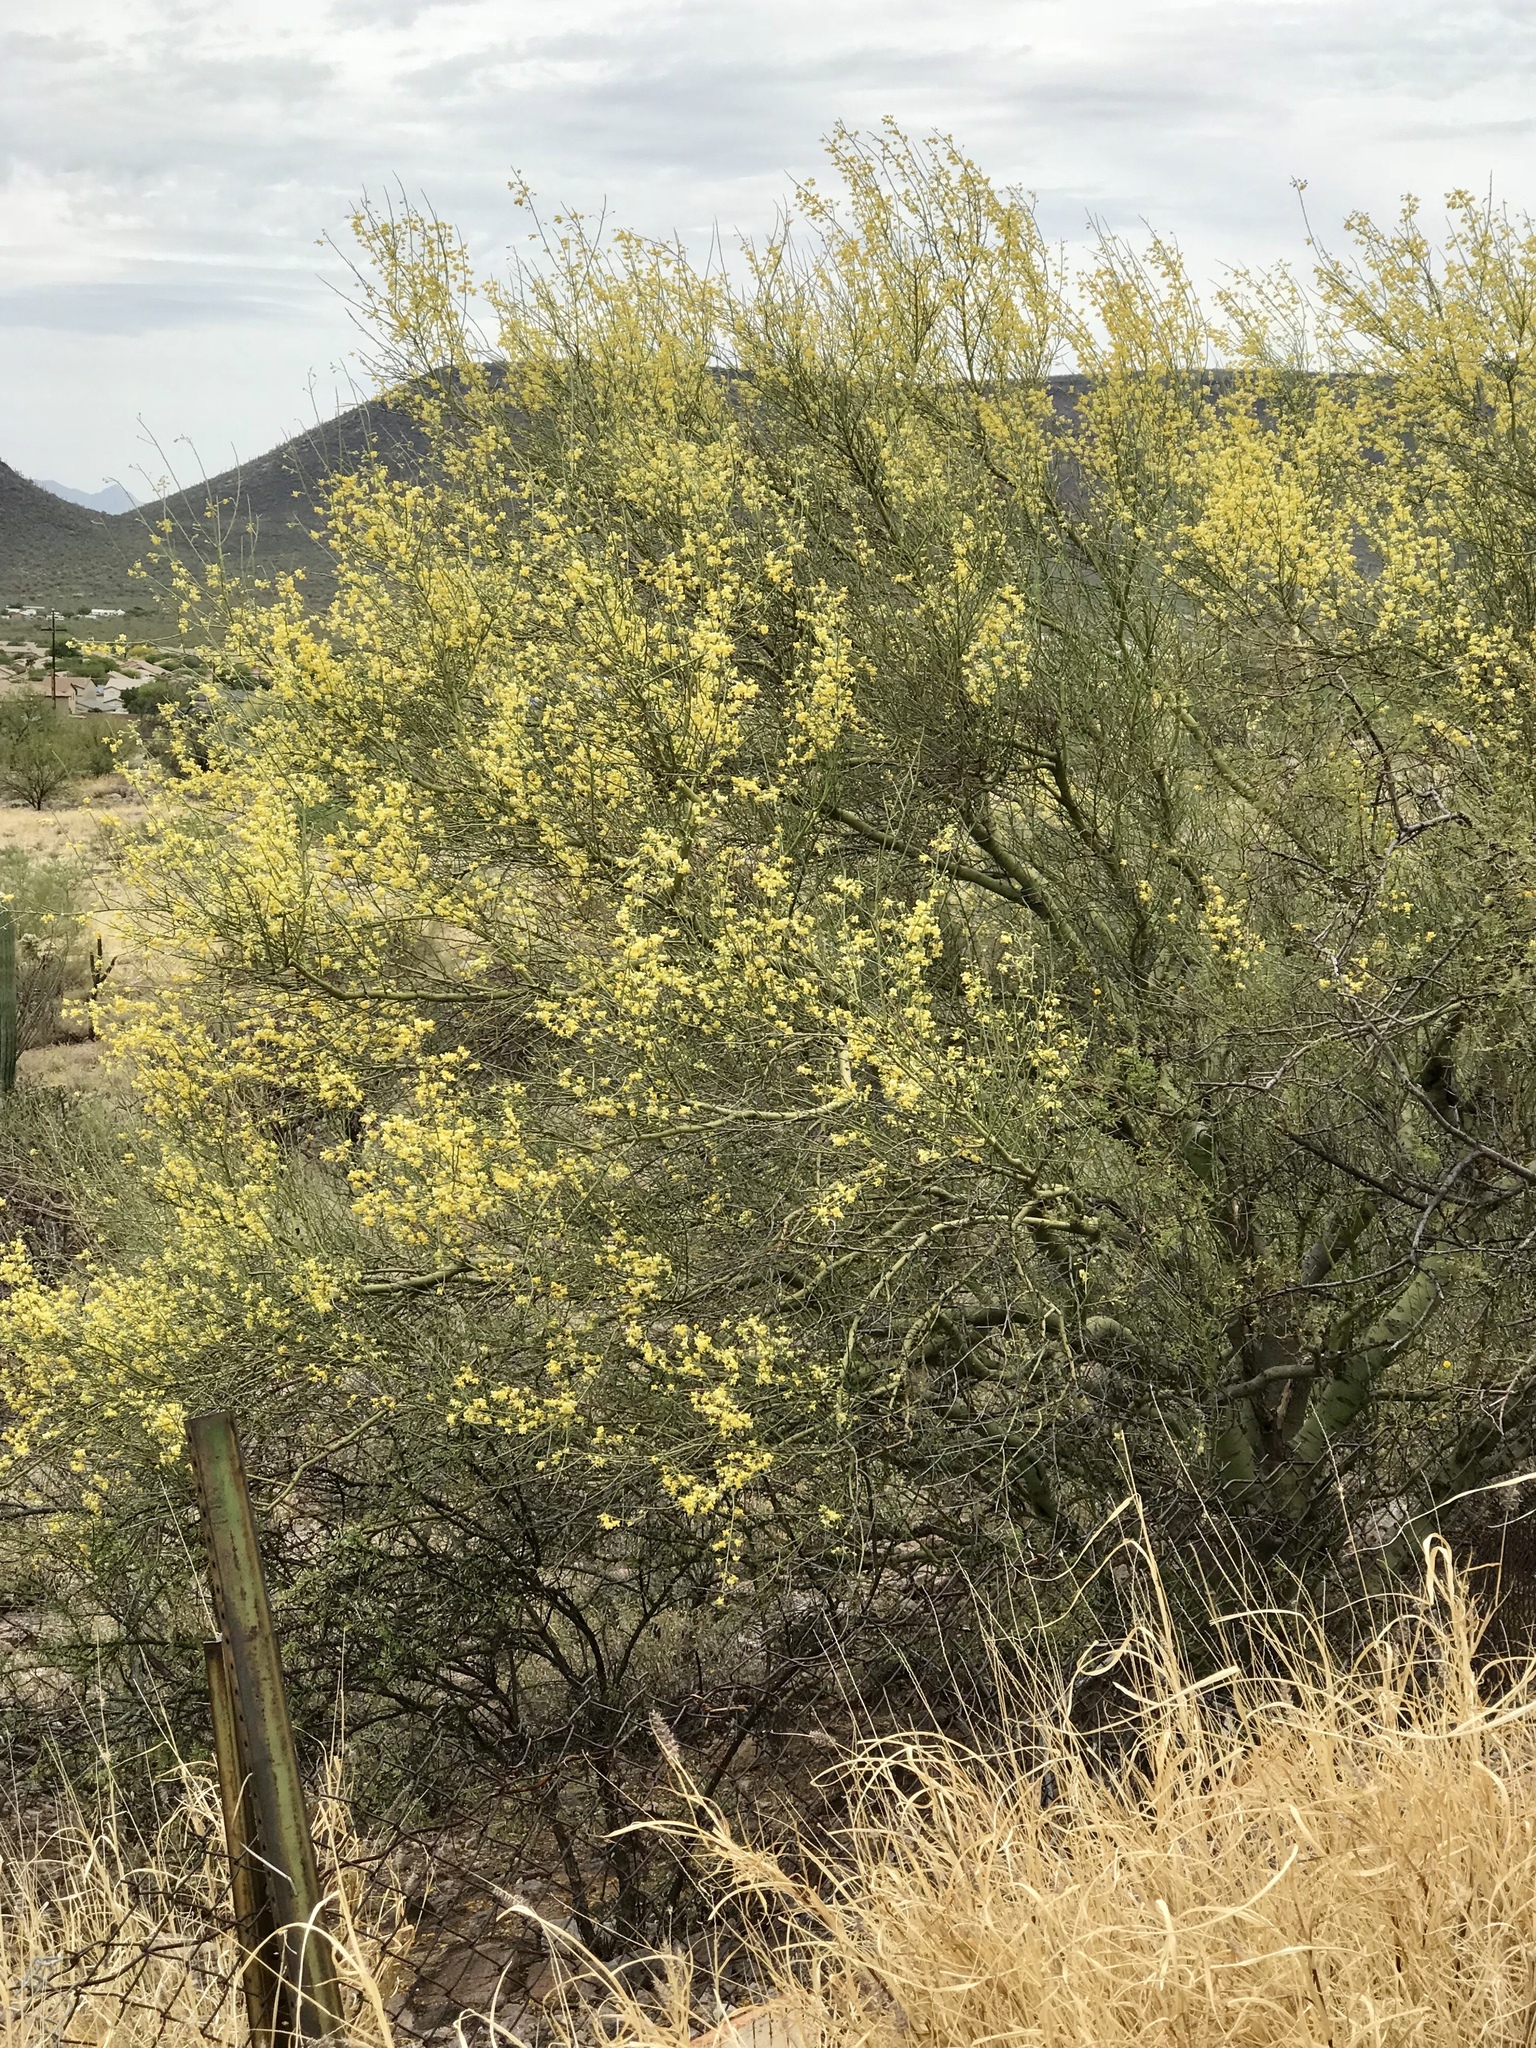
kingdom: Plantae
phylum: Tracheophyta
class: Magnoliopsida
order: Fabales
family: Fabaceae
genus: Parkinsonia
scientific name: Parkinsonia microphylla
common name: Yellow paloverde
